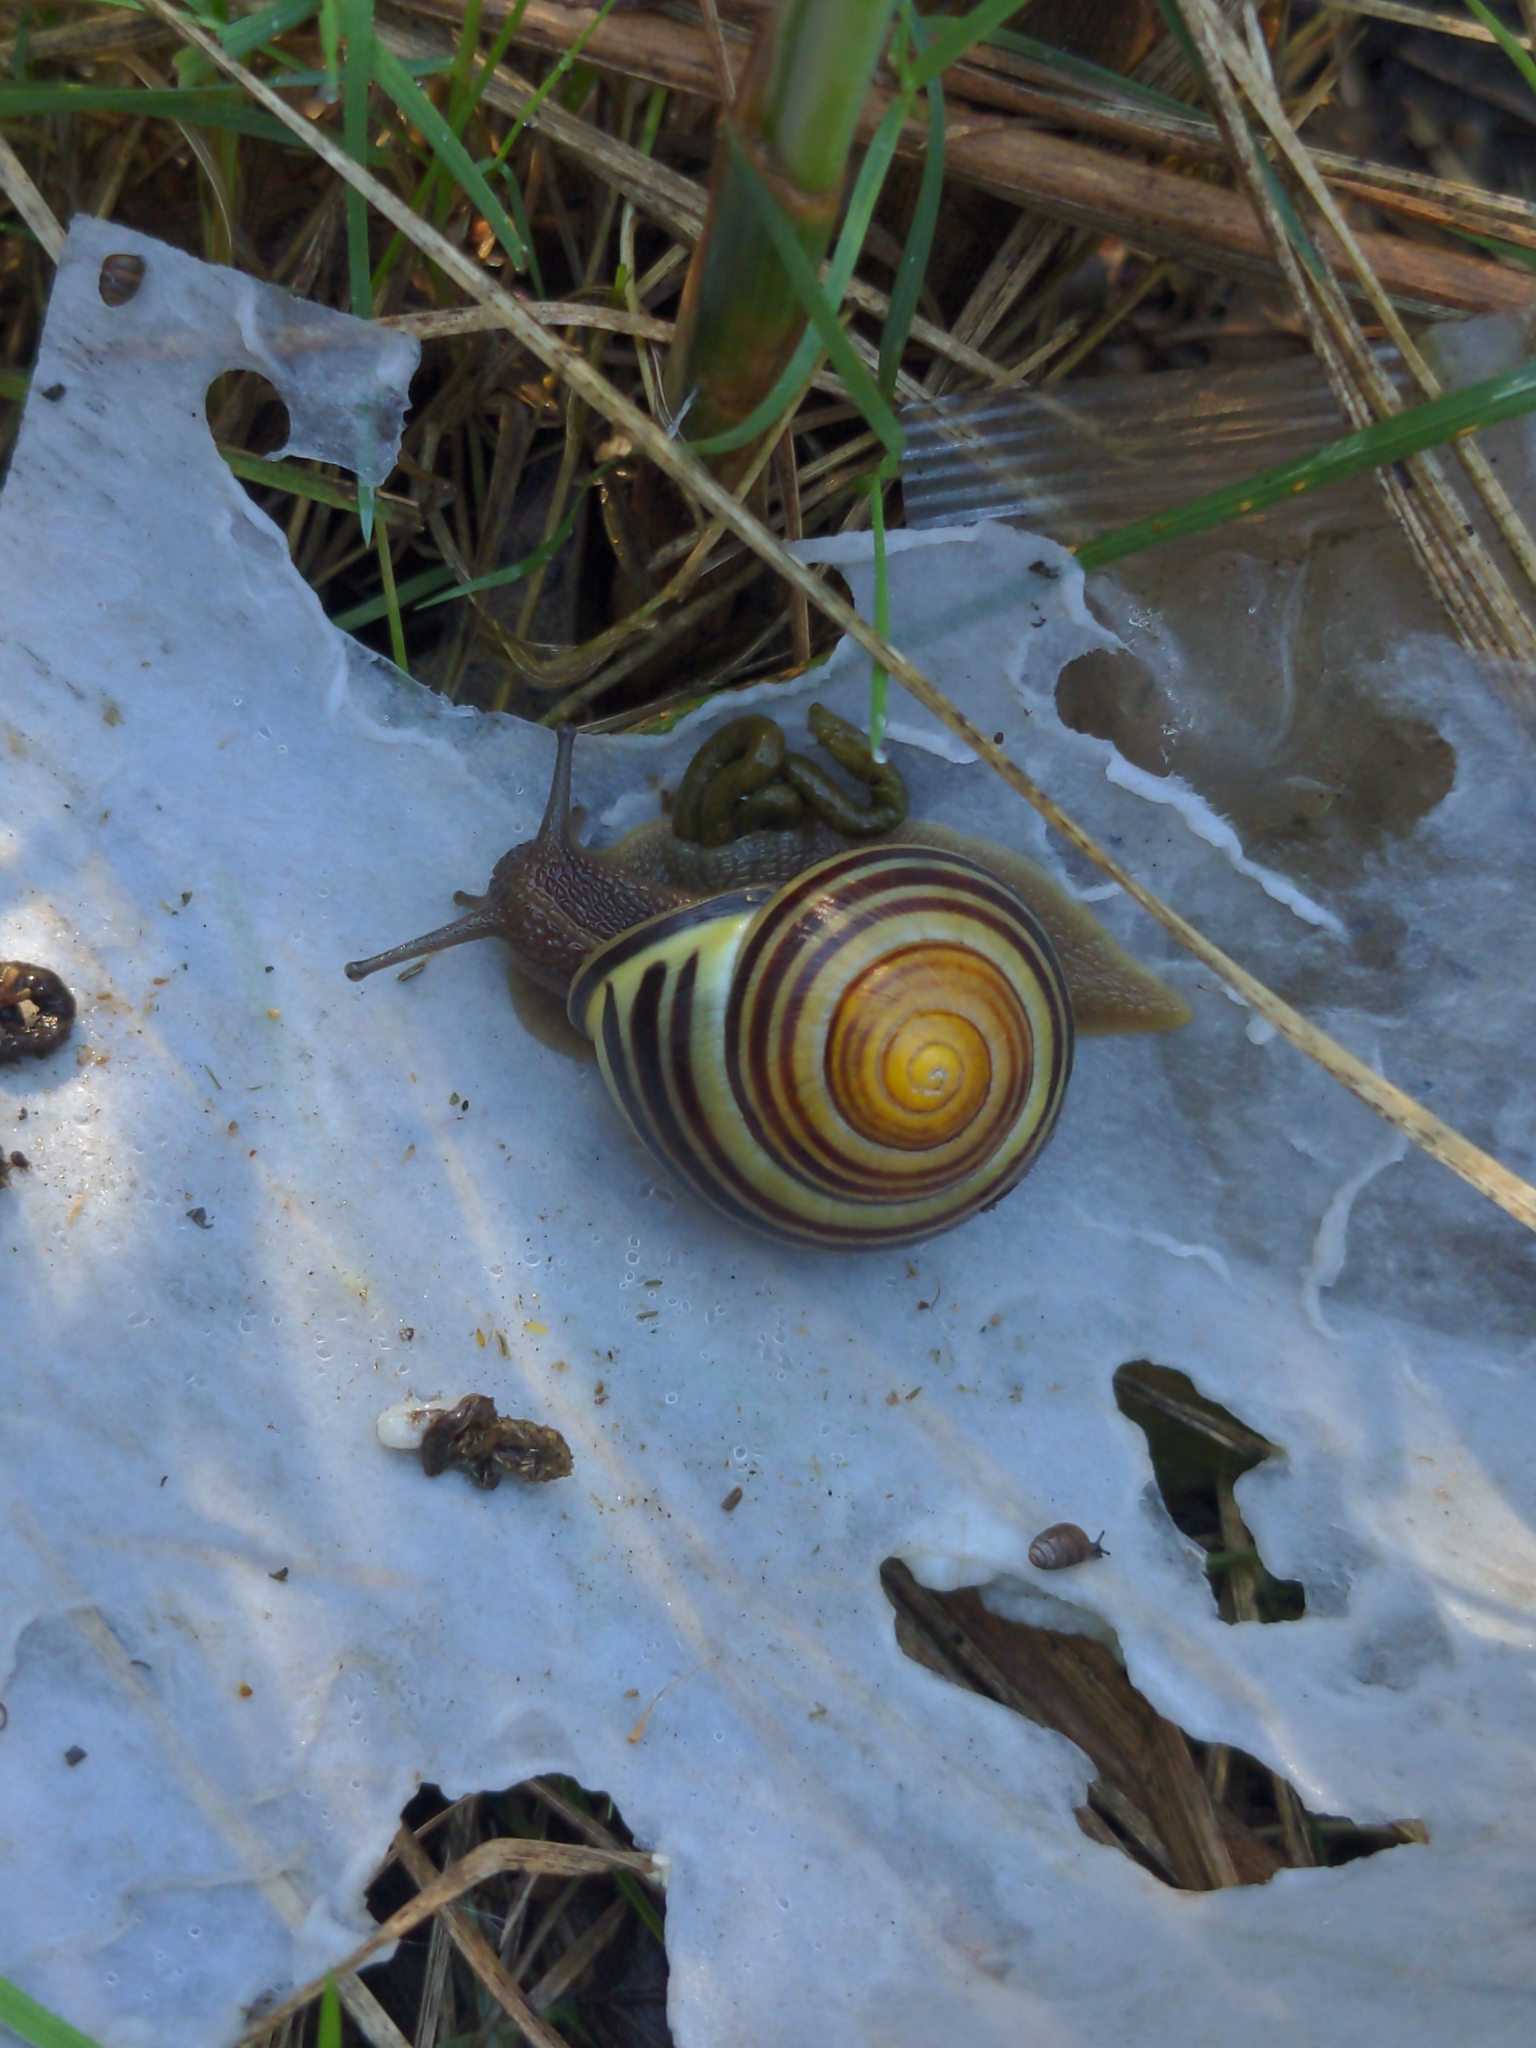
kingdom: Animalia
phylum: Mollusca
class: Gastropoda
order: Stylommatophora
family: Helicidae
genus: Cepaea
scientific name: Cepaea nemoralis
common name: Grovesnail
